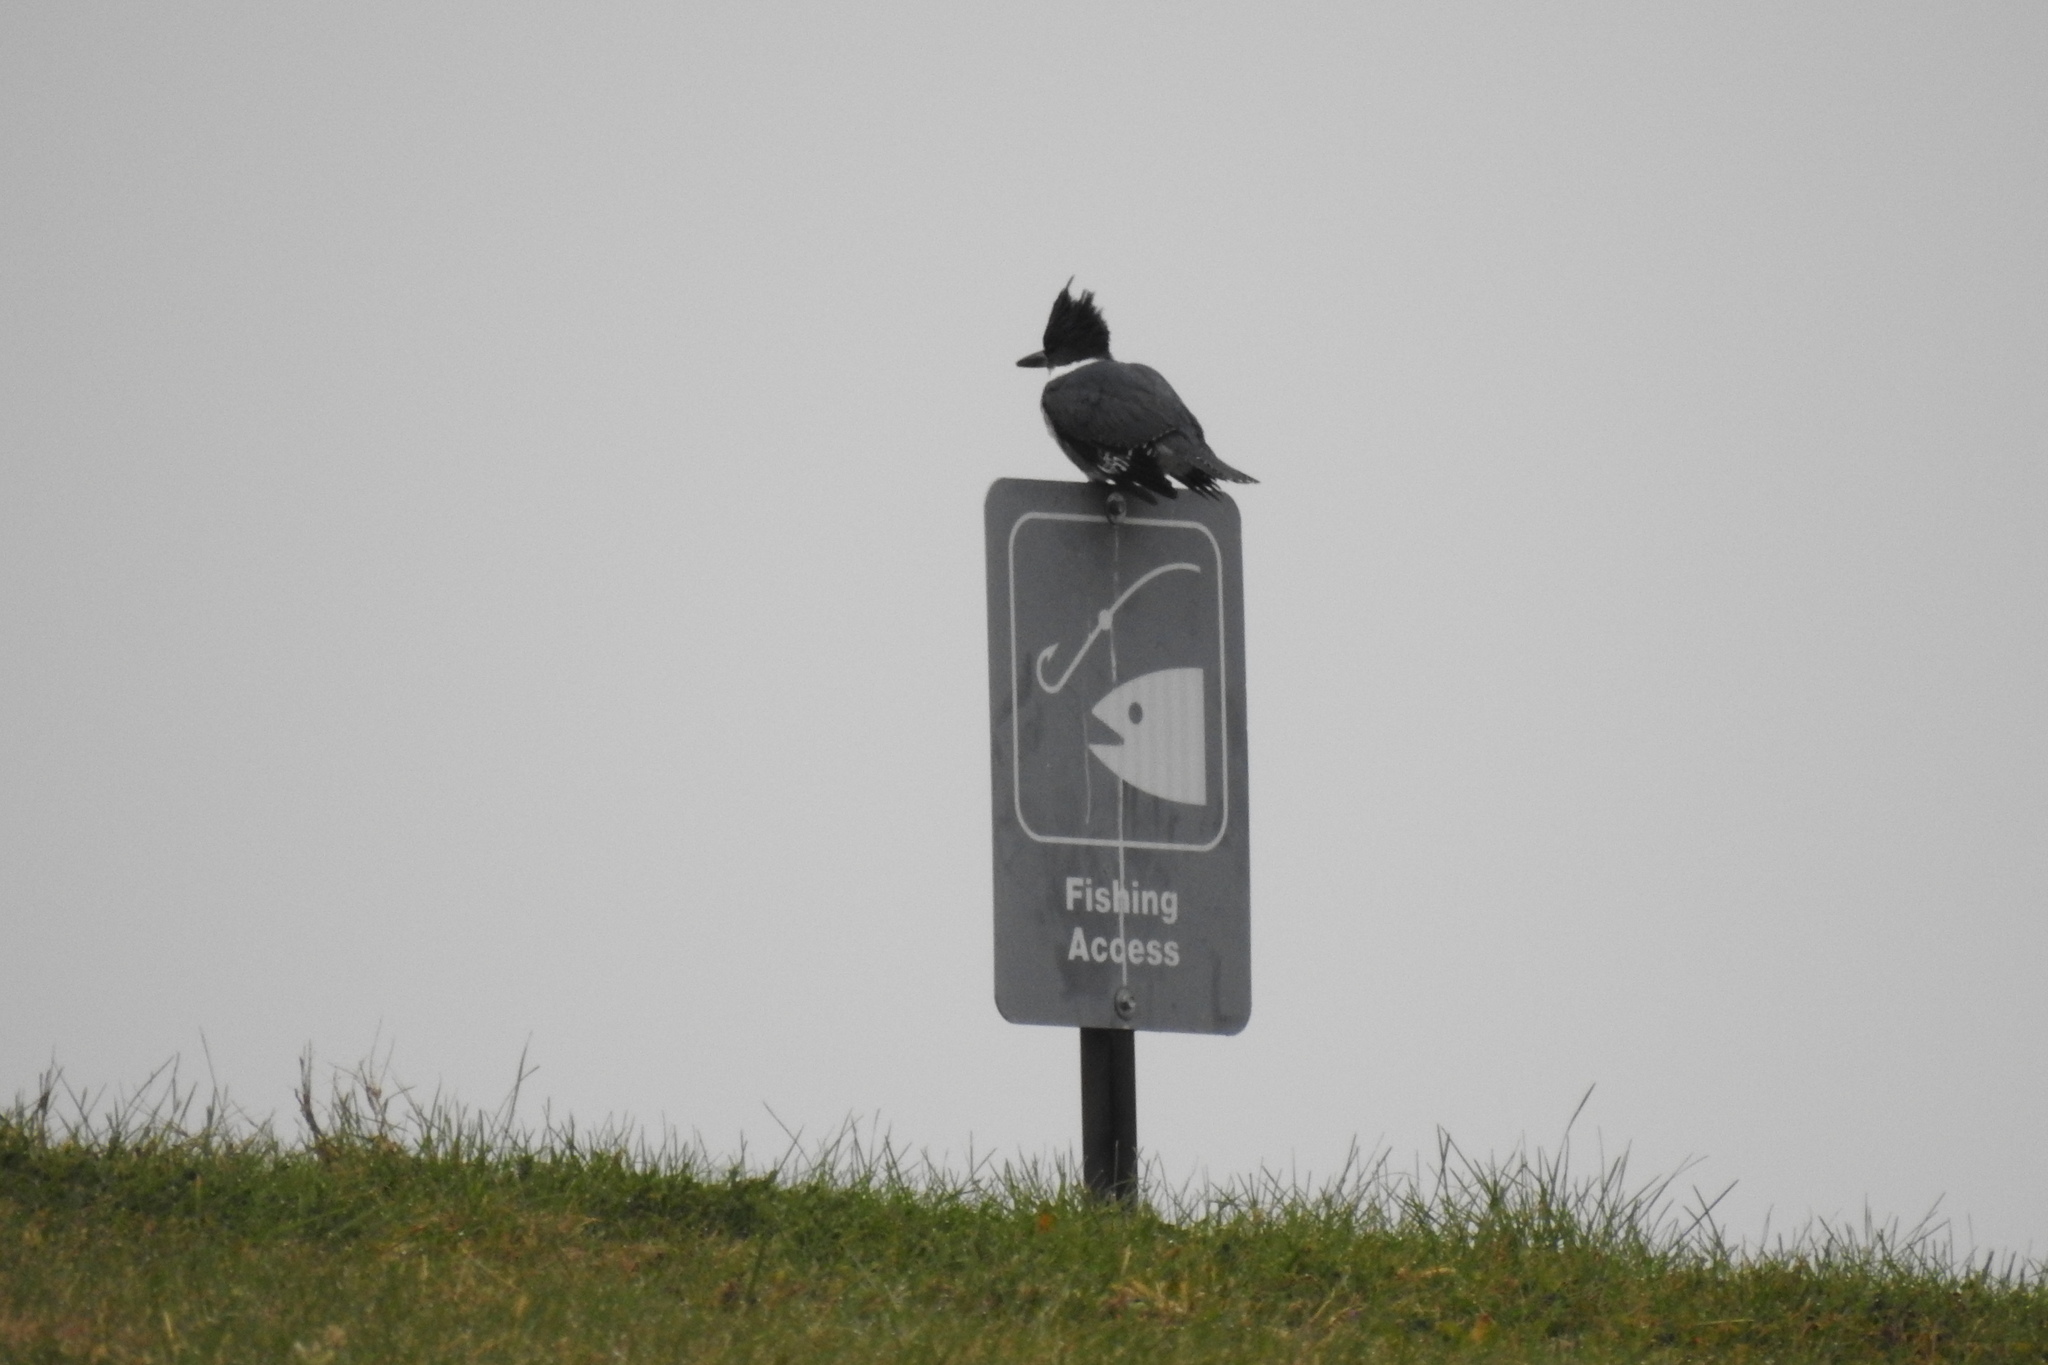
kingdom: Animalia
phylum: Chordata
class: Aves
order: Coraciiformes
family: Alcedinidae
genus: Megaceryle
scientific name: Megaceryle alcyon
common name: Belted kingfisher
